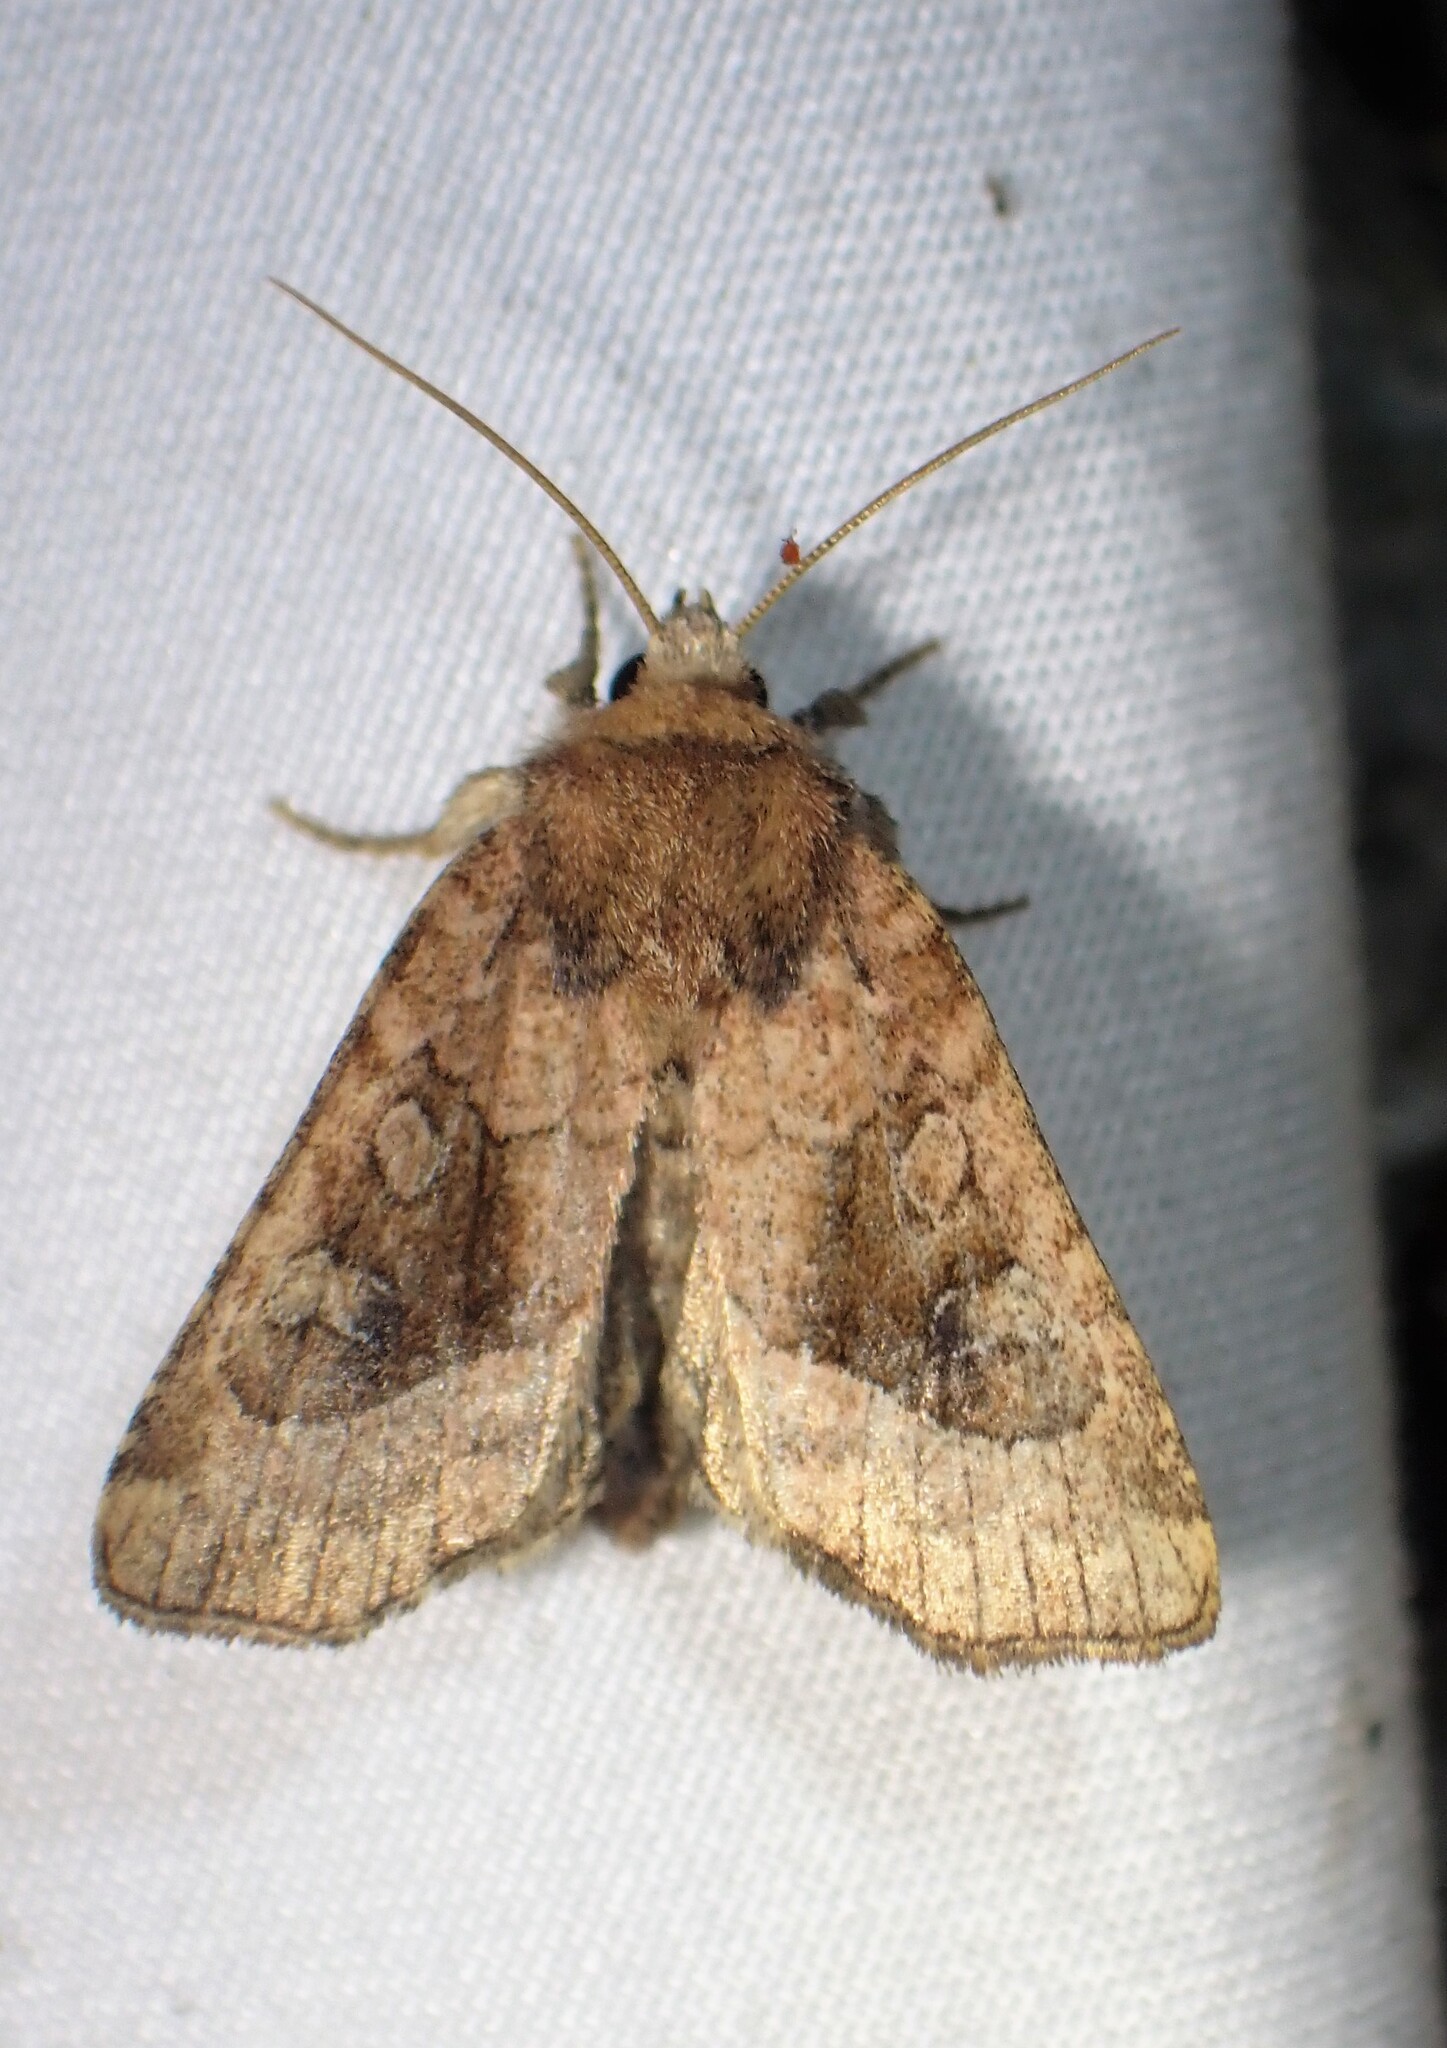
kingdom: Animalia
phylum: Arthropoda
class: Insecta
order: Lepidoptera
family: Noctuidae
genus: Lacinipolia
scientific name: Lacinipolia lorea
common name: Bridled arches moth
